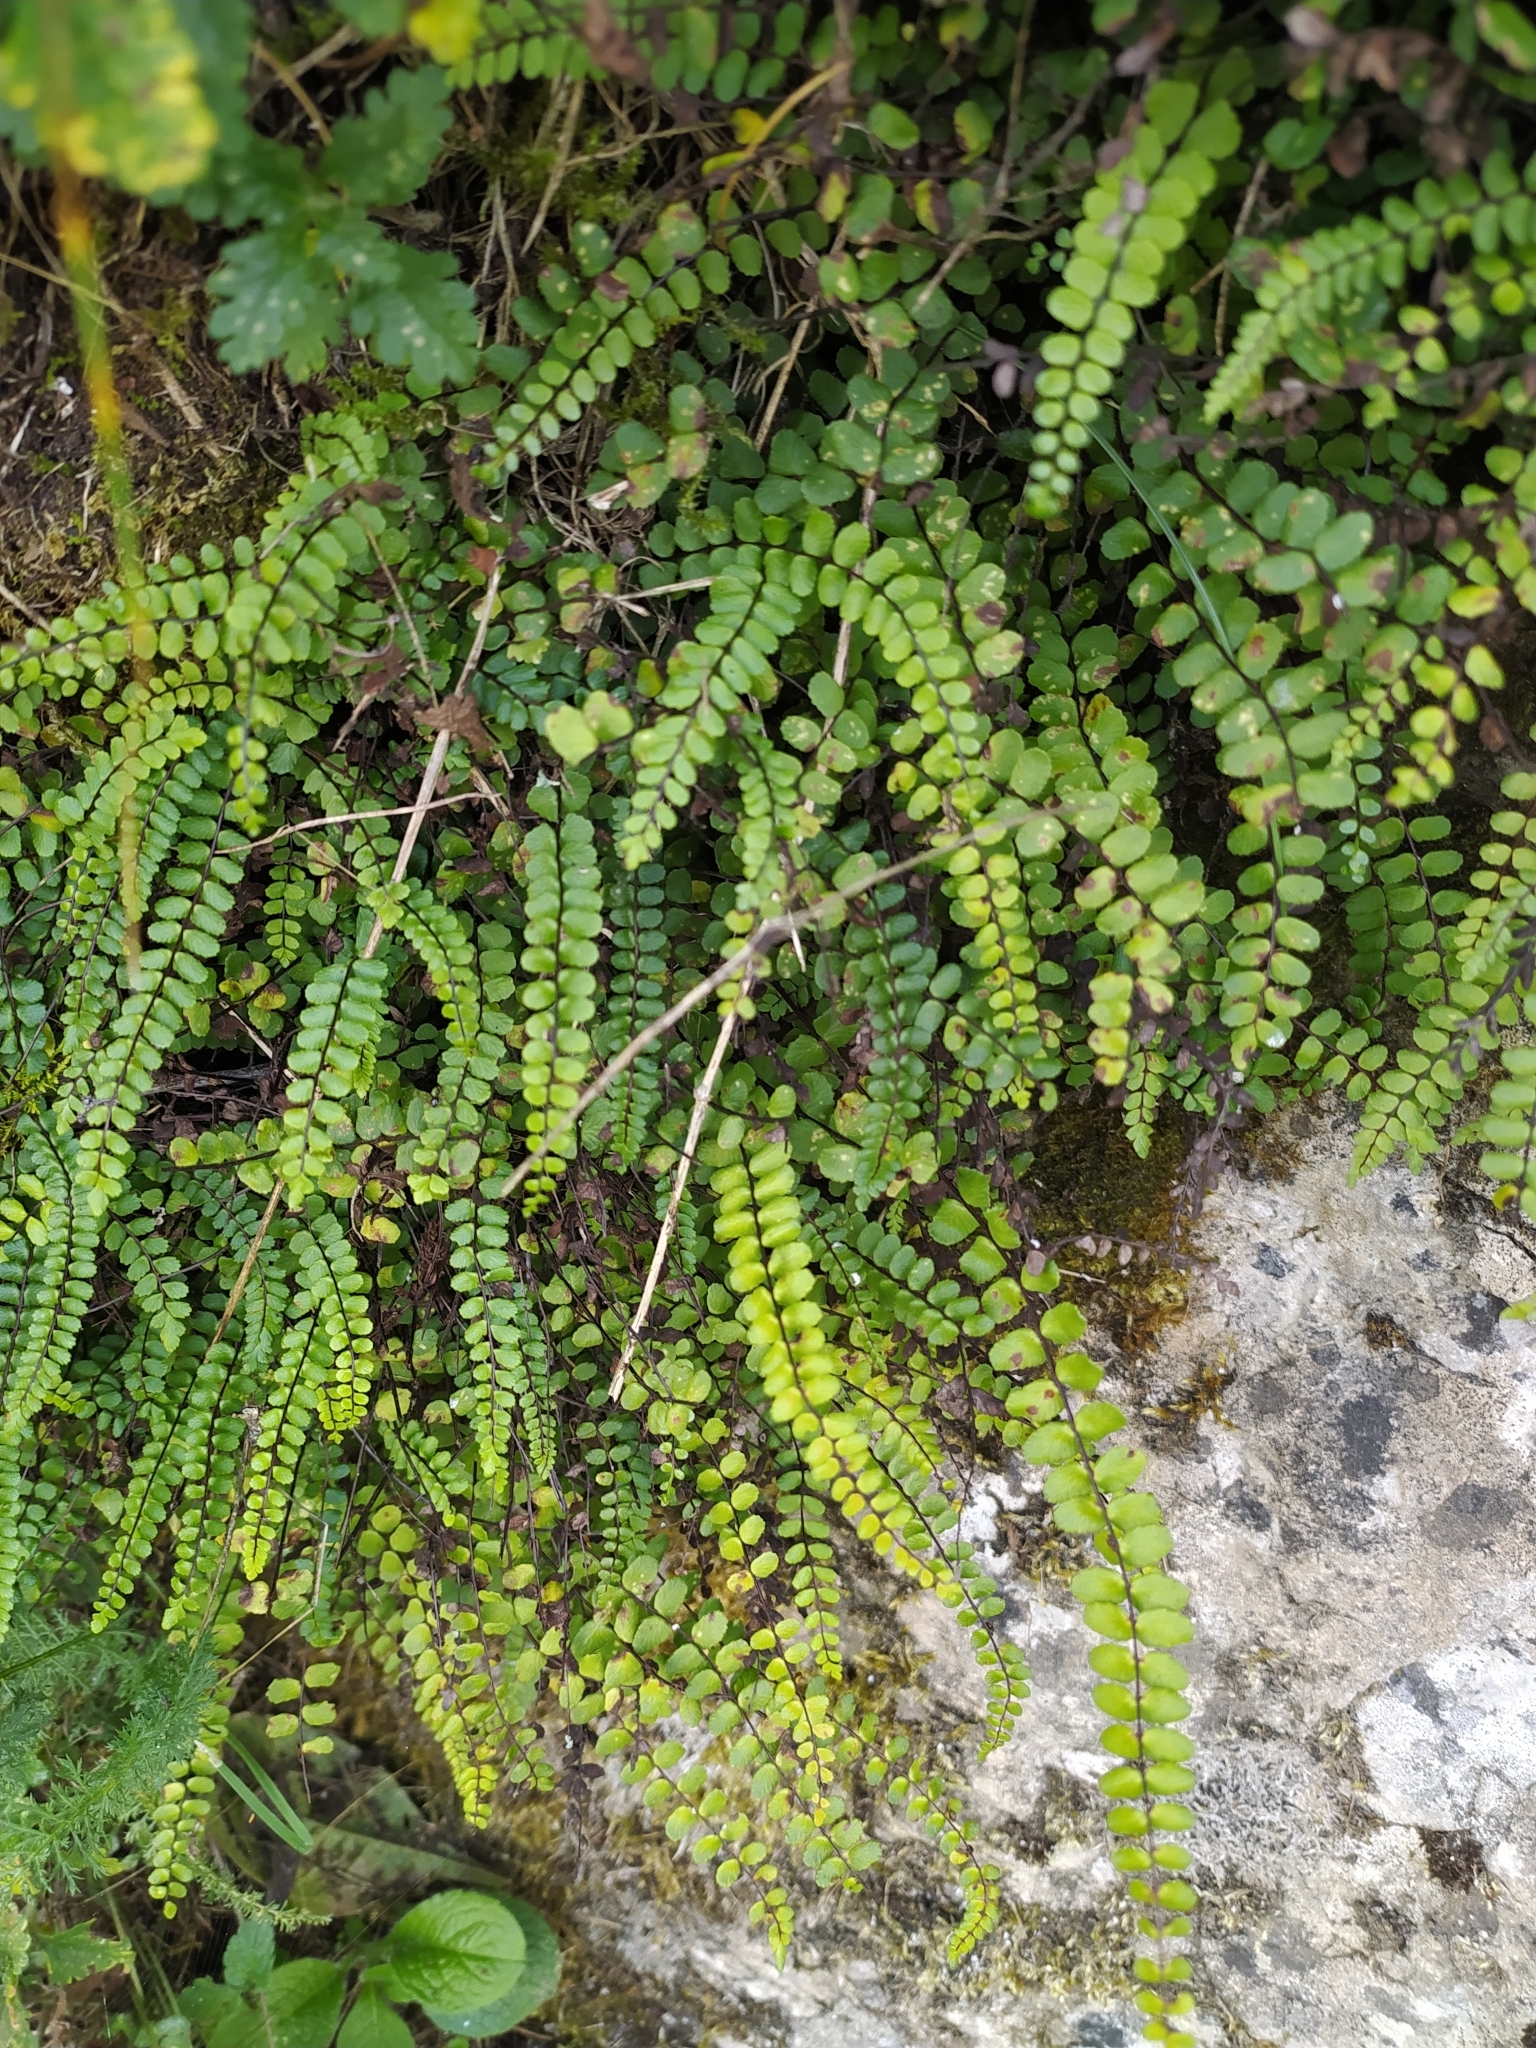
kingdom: Plantae
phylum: Tracheophyta
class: Polypodiopsida
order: Polypodiales
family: Aspleniaceae
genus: Asplenium
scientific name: Asplenium trichomanes
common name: Maidenhair spleenwort
